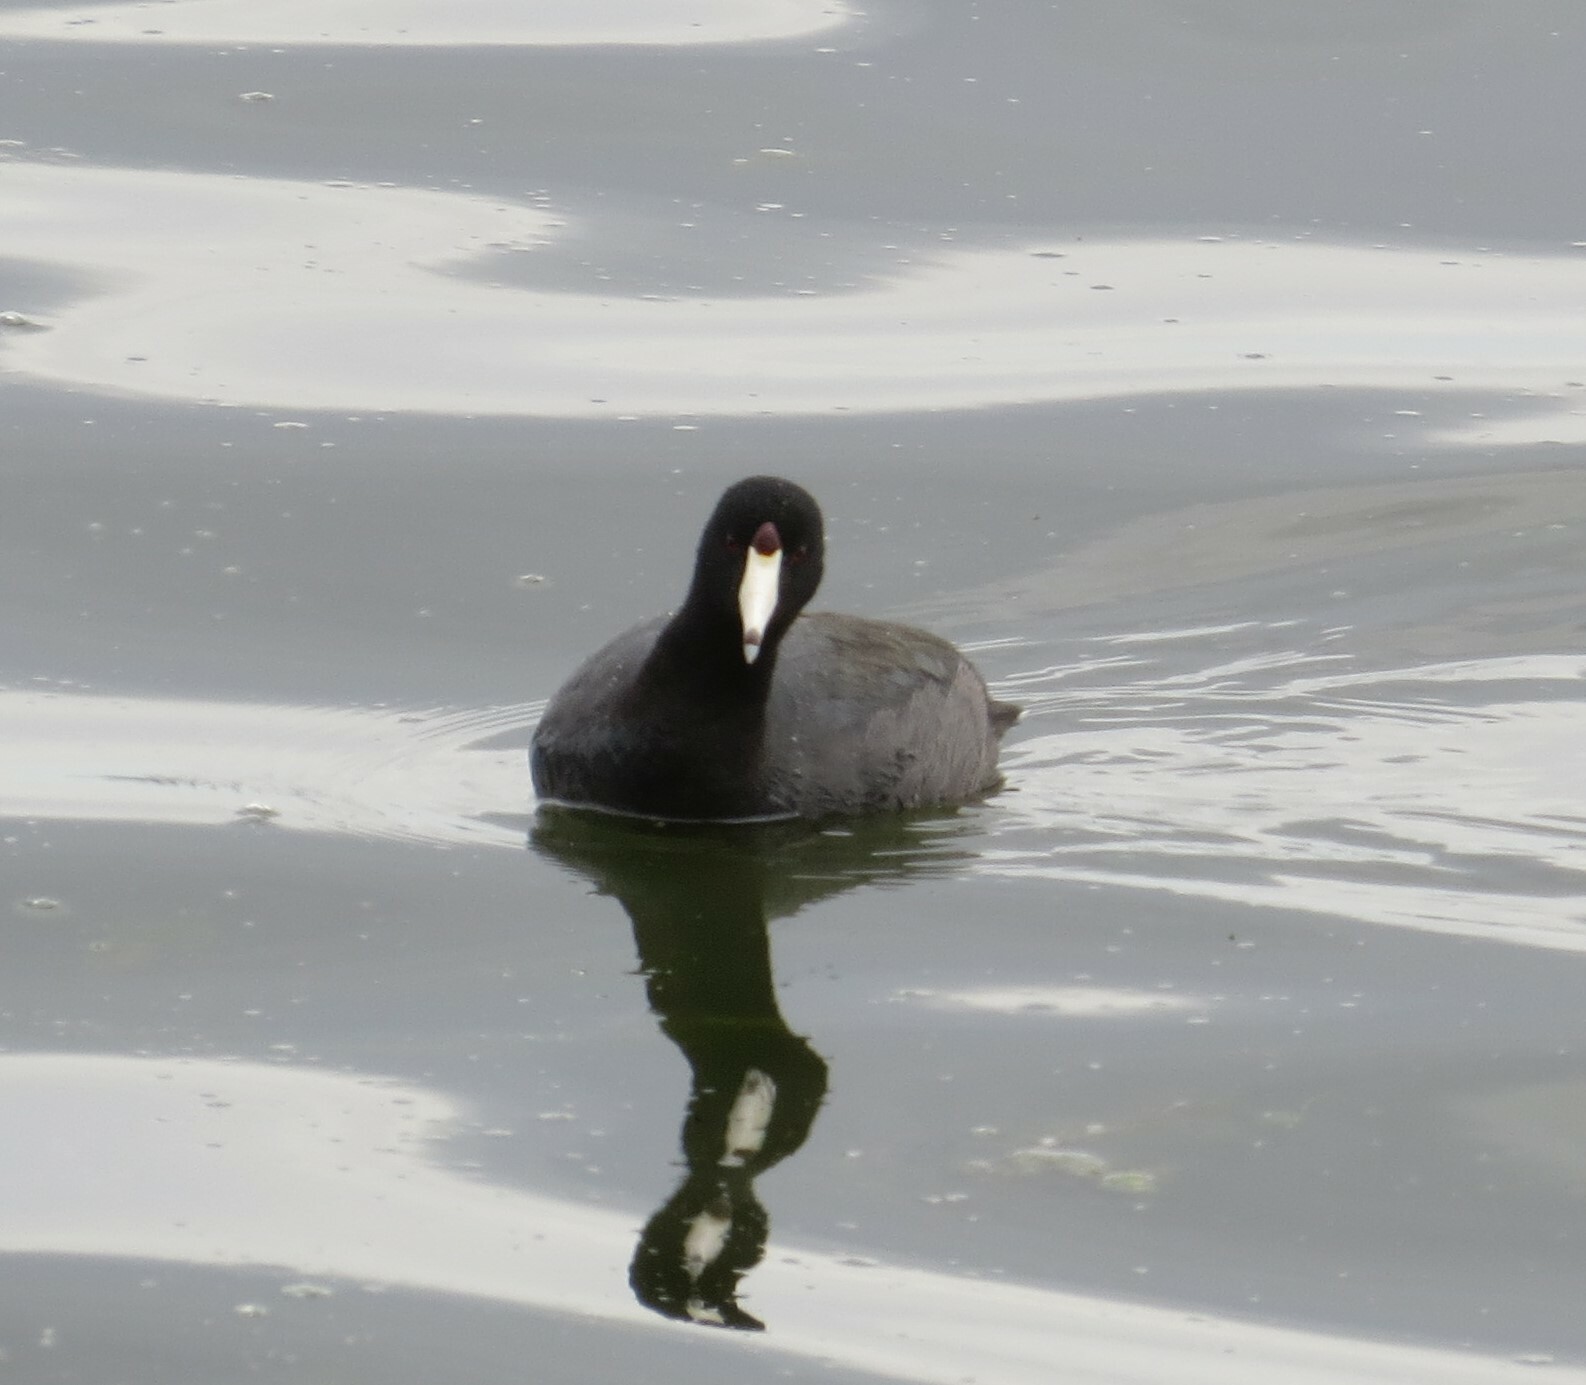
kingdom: Animalia
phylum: Chordata
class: Aves
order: Gruiformes
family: Rallidae
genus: Fulica
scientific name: Fulica americana
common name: American coot
